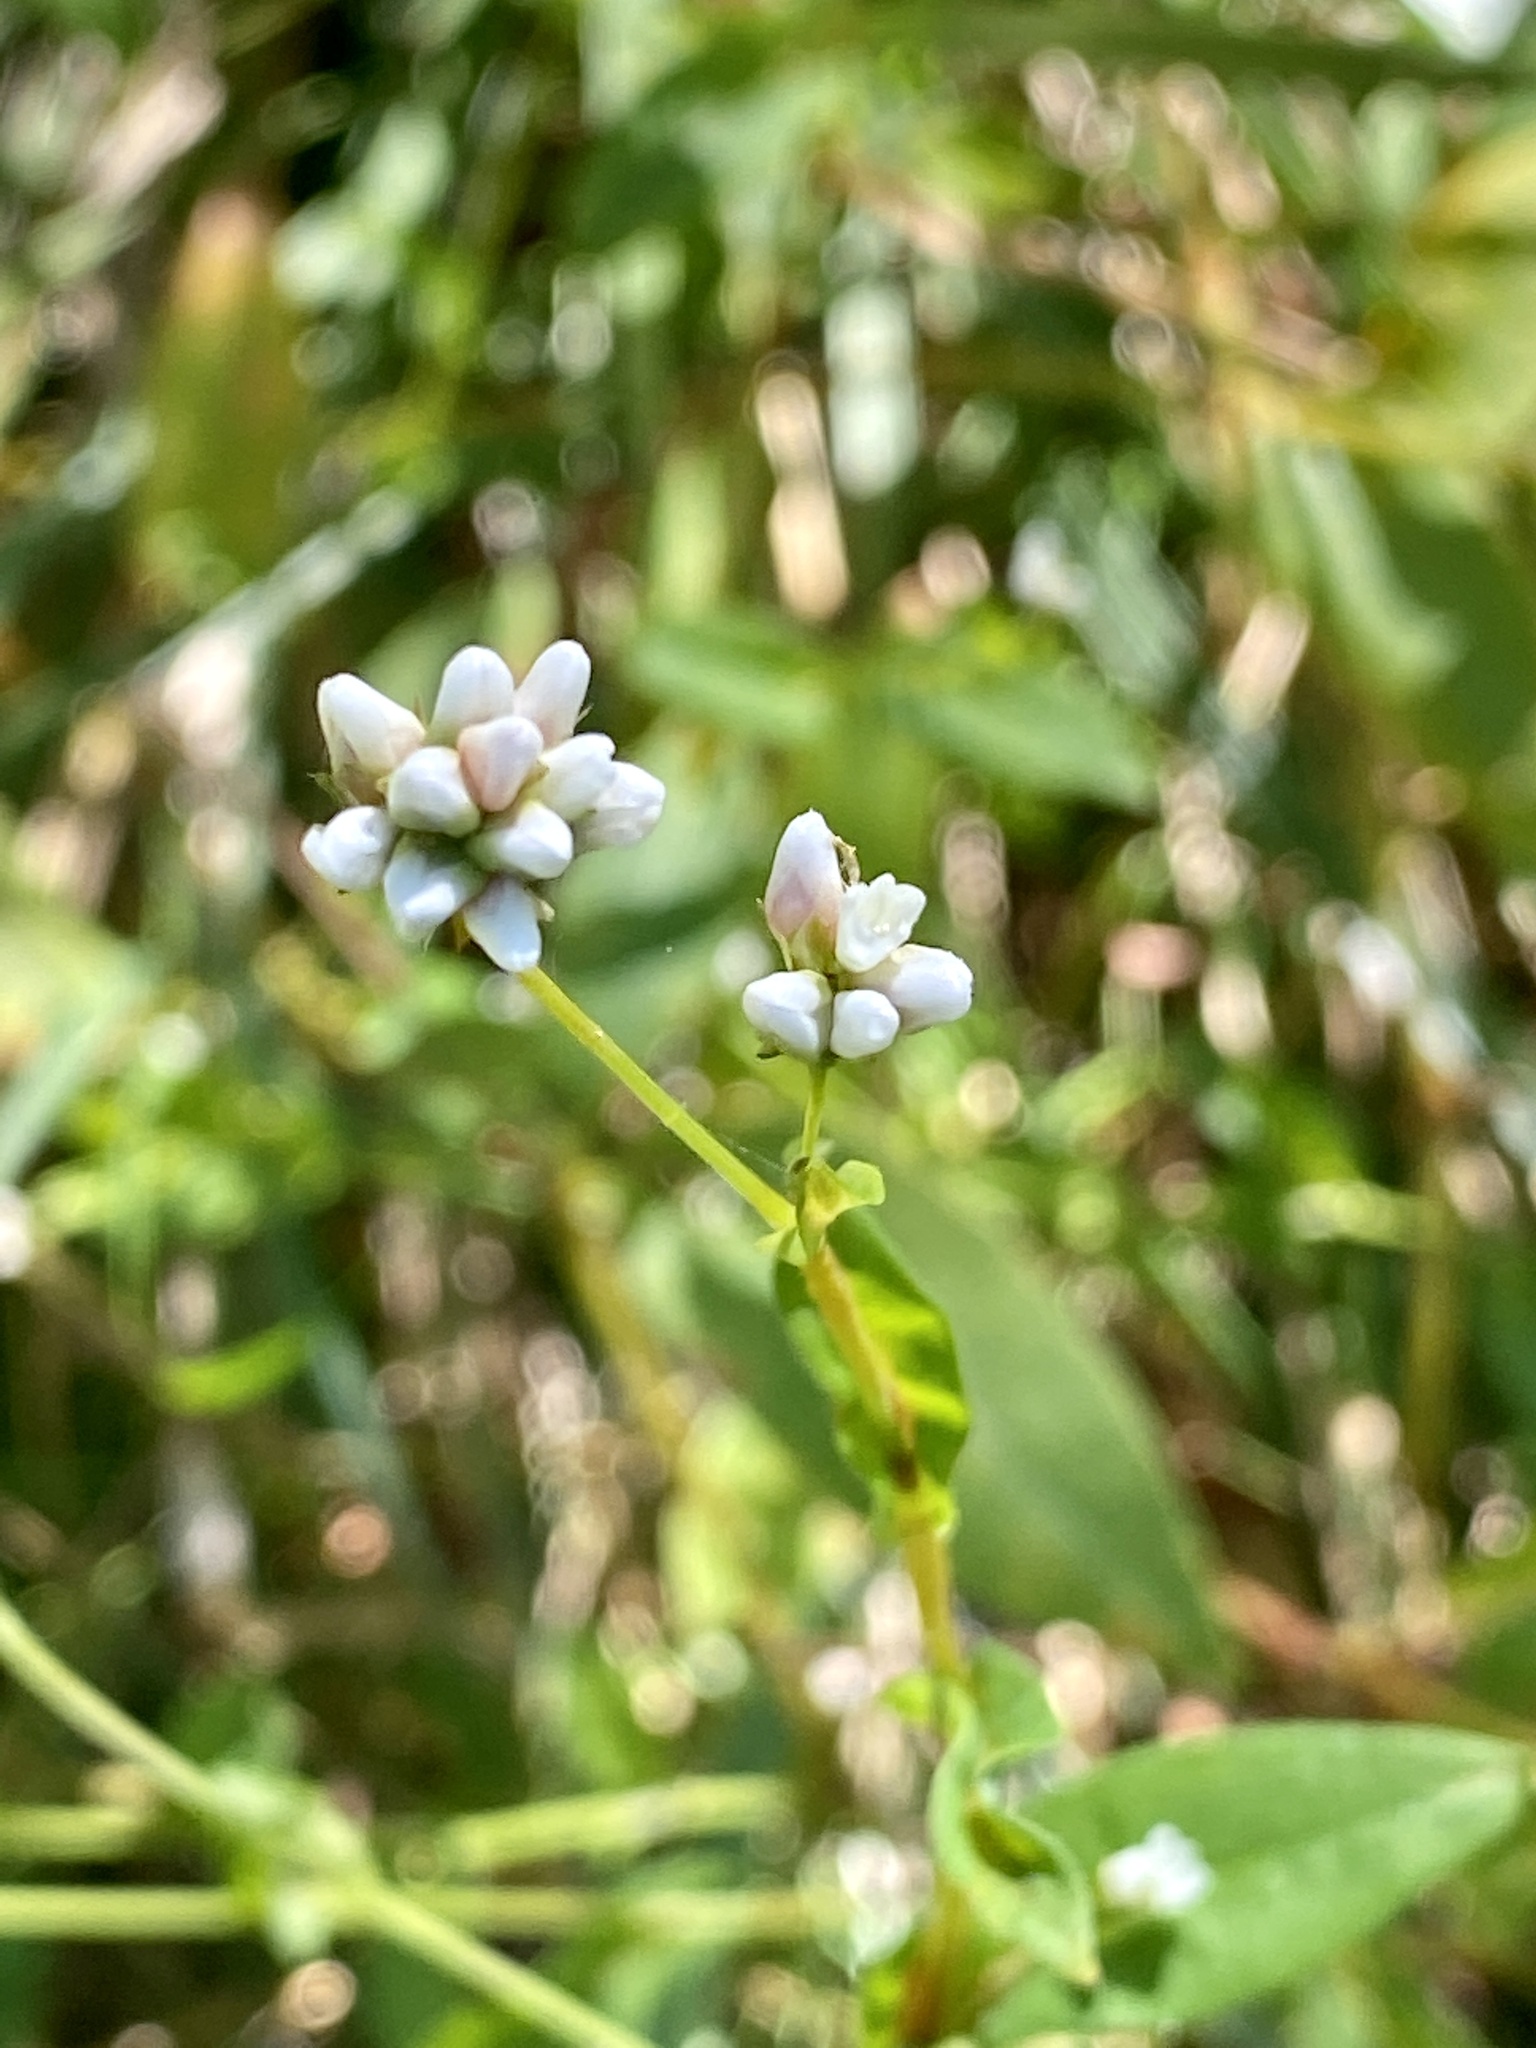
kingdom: Plantae
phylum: Tracheophyta
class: Magnoliopsida
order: Caryophyllales
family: Polygonaceae
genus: Persicaria
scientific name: Persicaria sagittata
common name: American tearthumb
